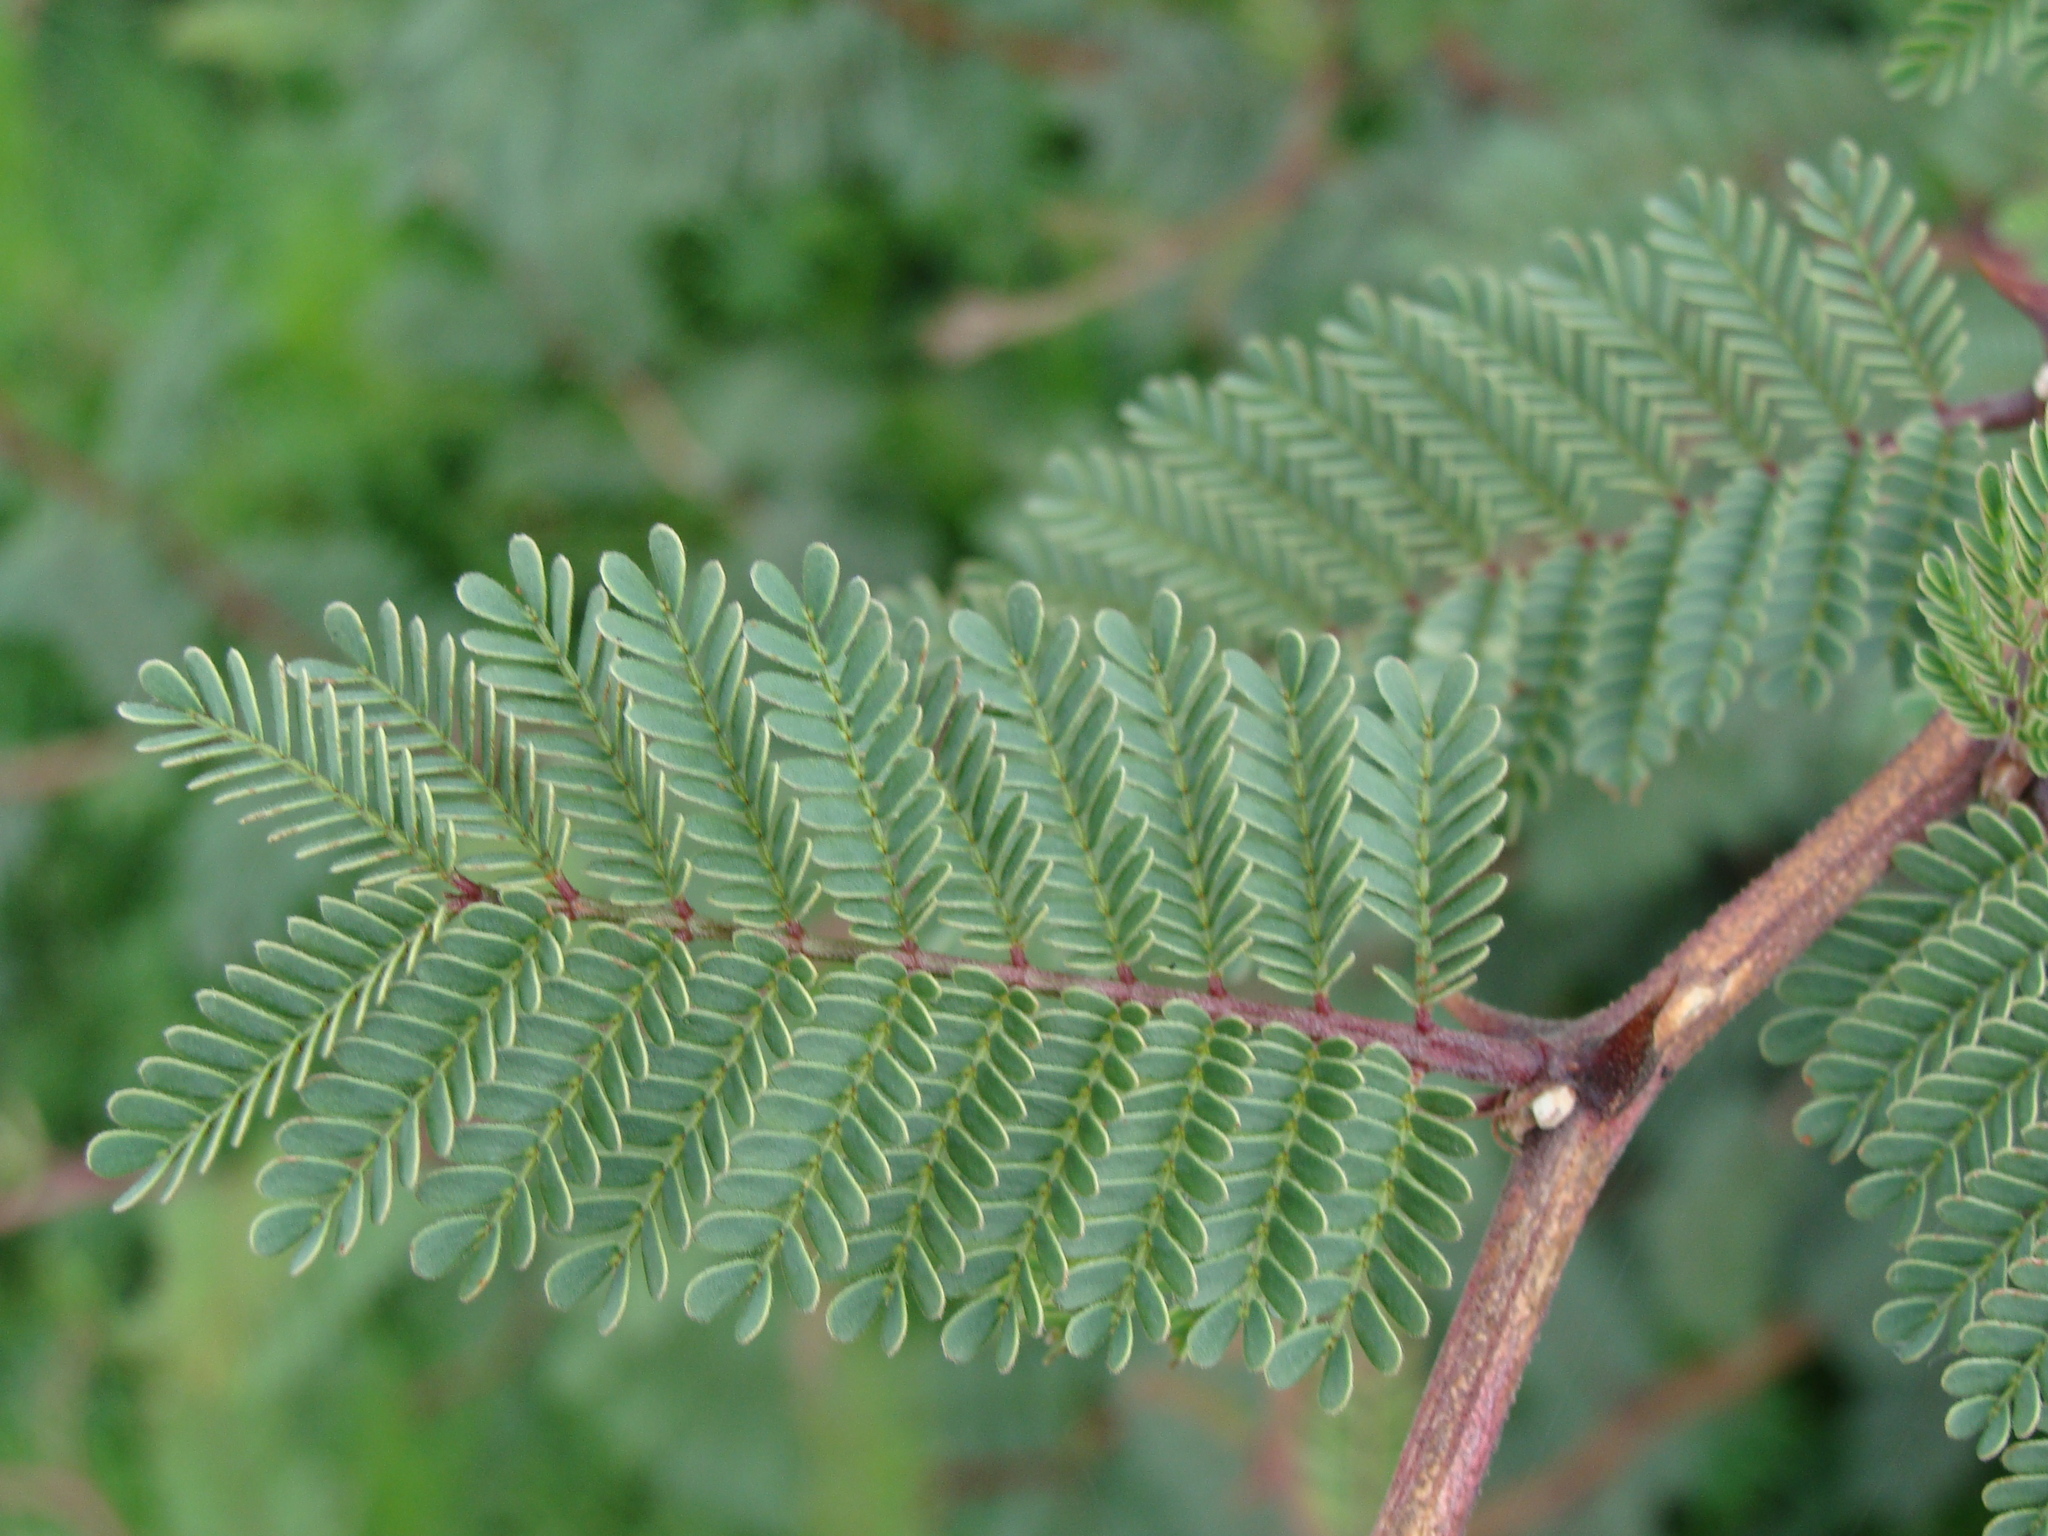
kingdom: Plantae
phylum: Tracheophyta
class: Magnoliopsida
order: Fabales
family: Fabaceae
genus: Mimosa
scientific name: Mimosa aculeaticarpa
